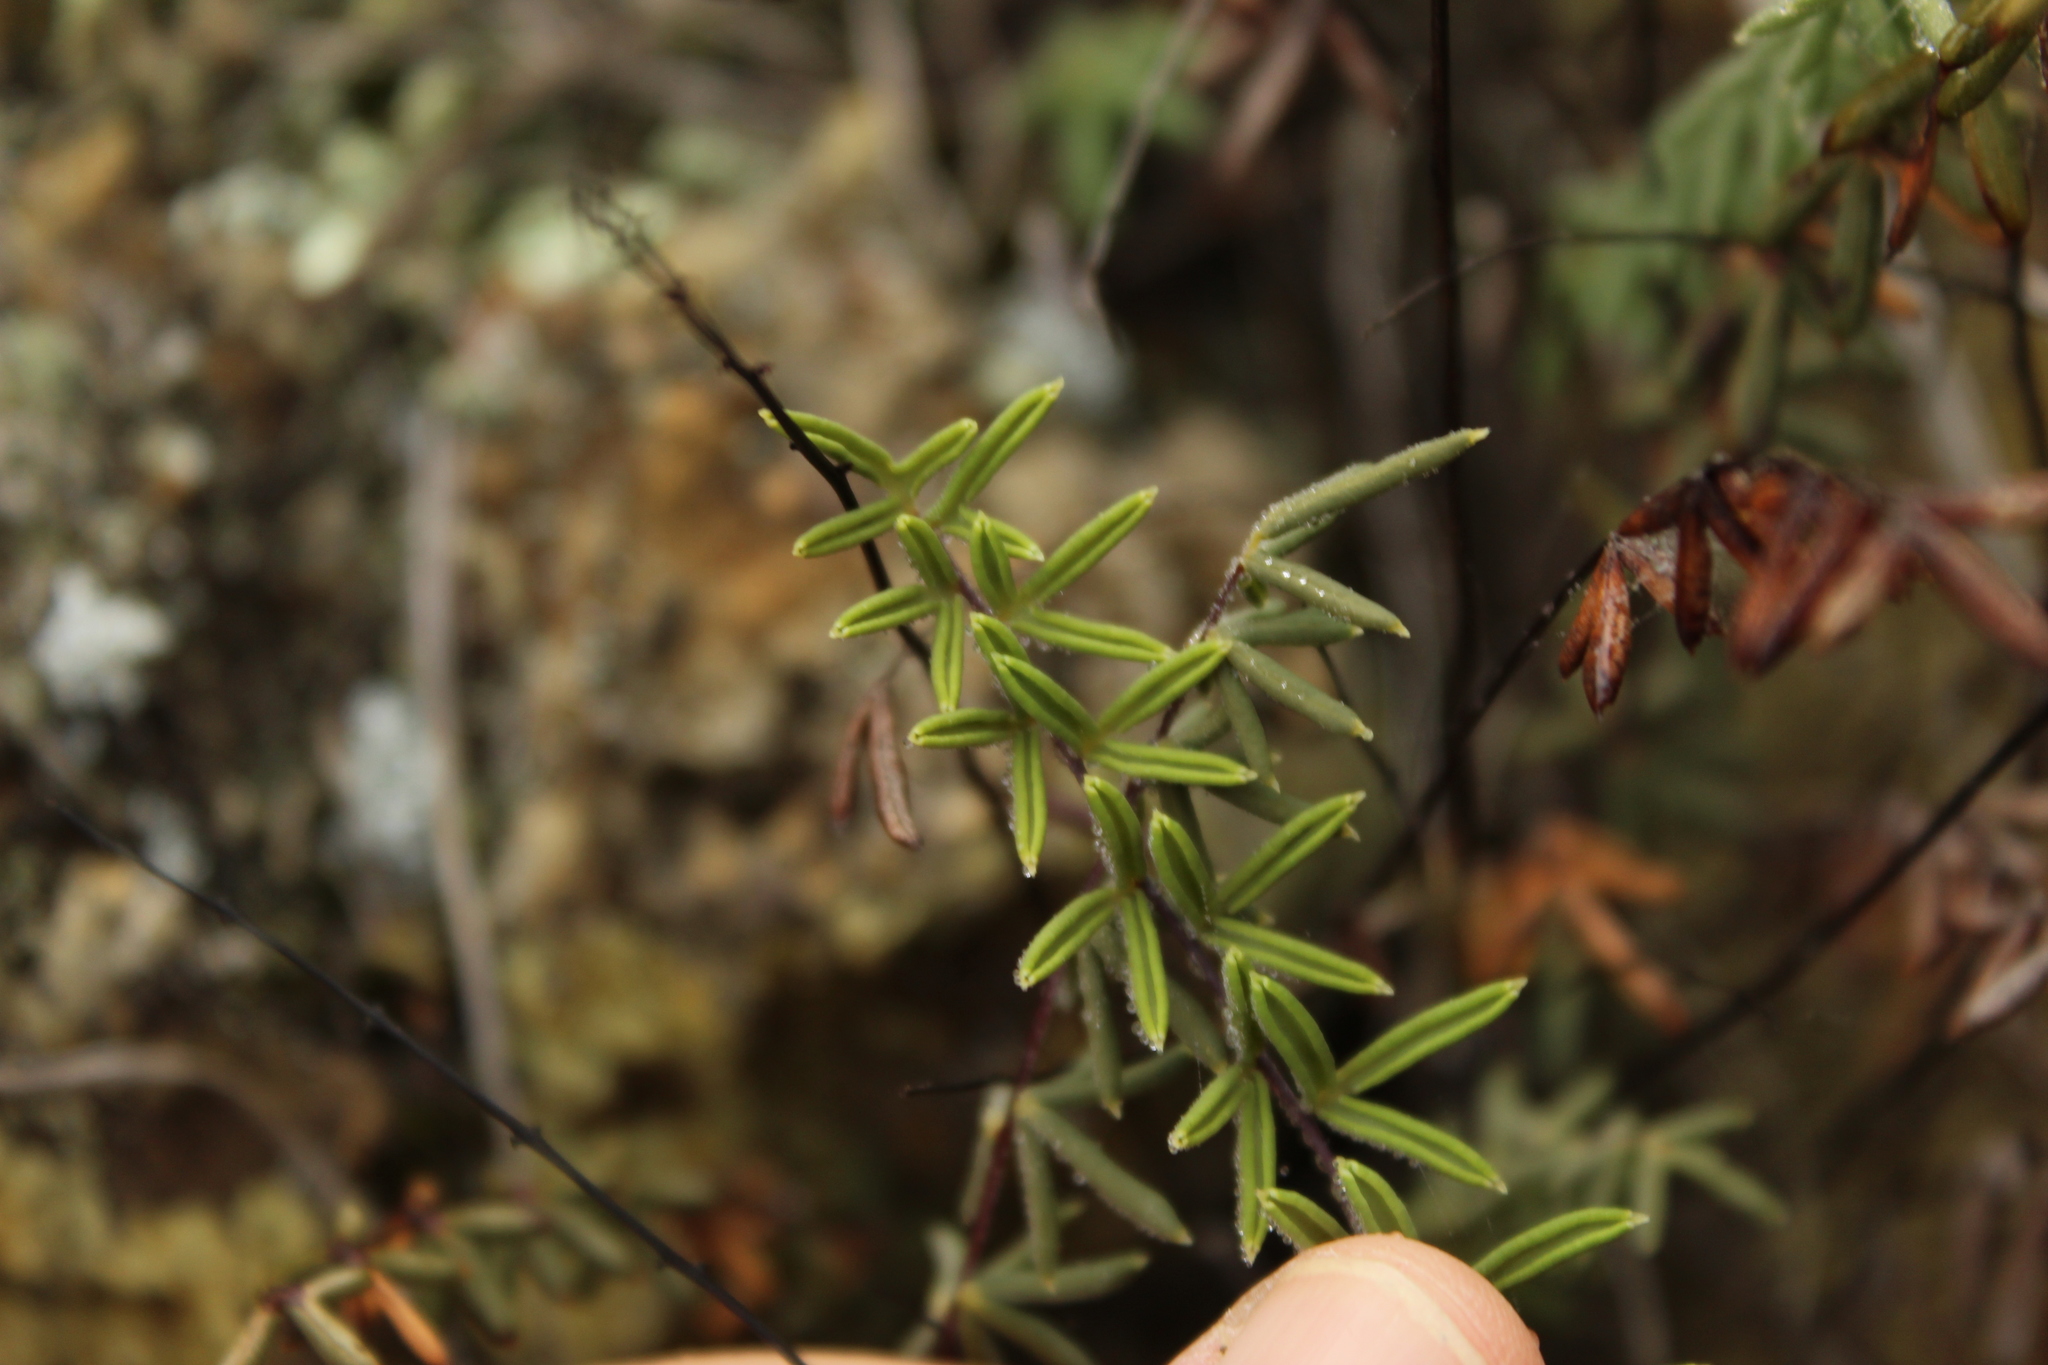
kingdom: Plantae
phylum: Tracheophyta
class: Polypodiopsida
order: Polypodiales
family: Pteridaceae
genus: Pellaea
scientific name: Pellaea ternifolia
